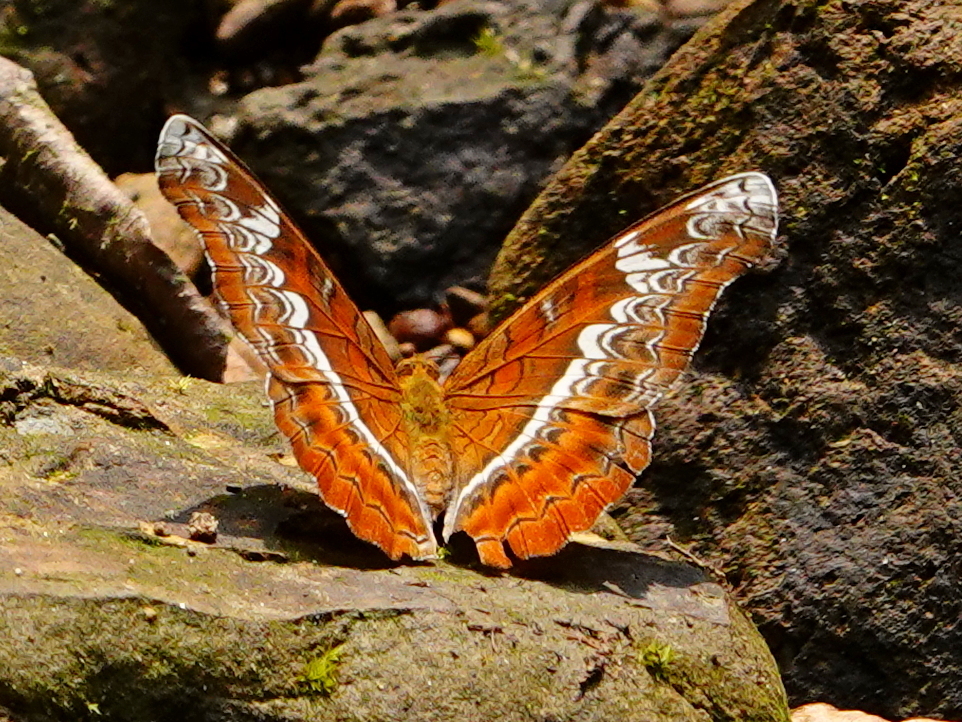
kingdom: Animalia
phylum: Arthropoda
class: Insecta
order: Lepidoptera
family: Nymphalidae
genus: Lebadea
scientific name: Lebadea martha
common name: Knight
